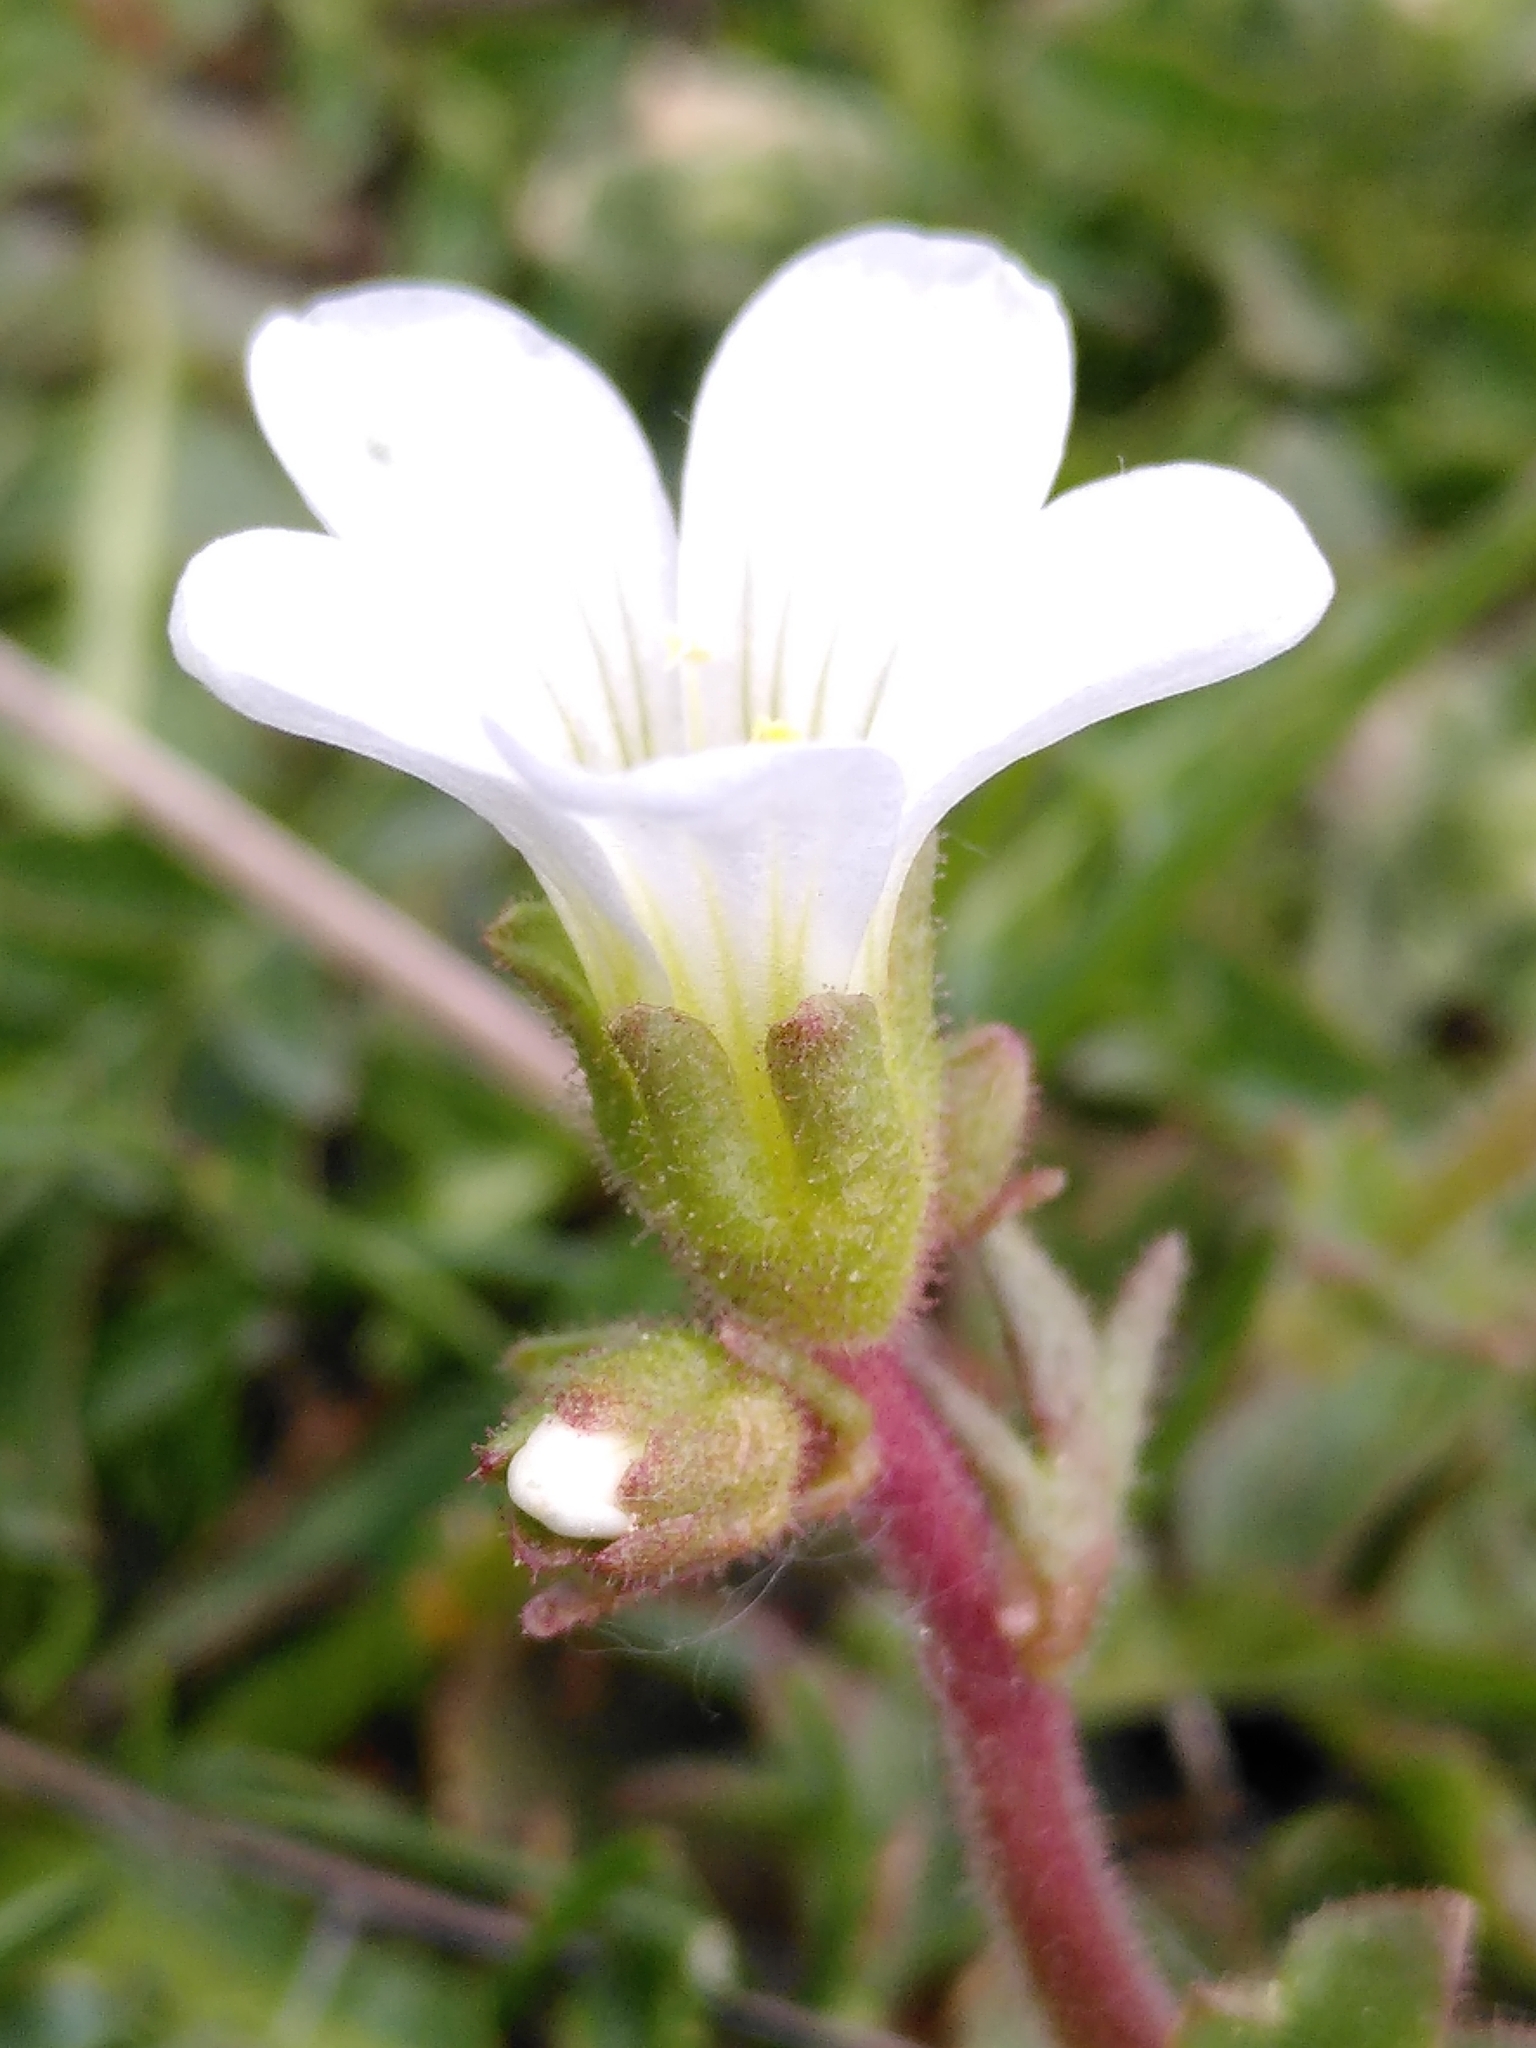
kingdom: Plantae
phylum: Tracheophyta
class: Magnoliopsida
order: Saxifragales
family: Saxifragaceae
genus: Saxifraga
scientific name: Saxifraga granulata
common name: Meadow saxifrage
